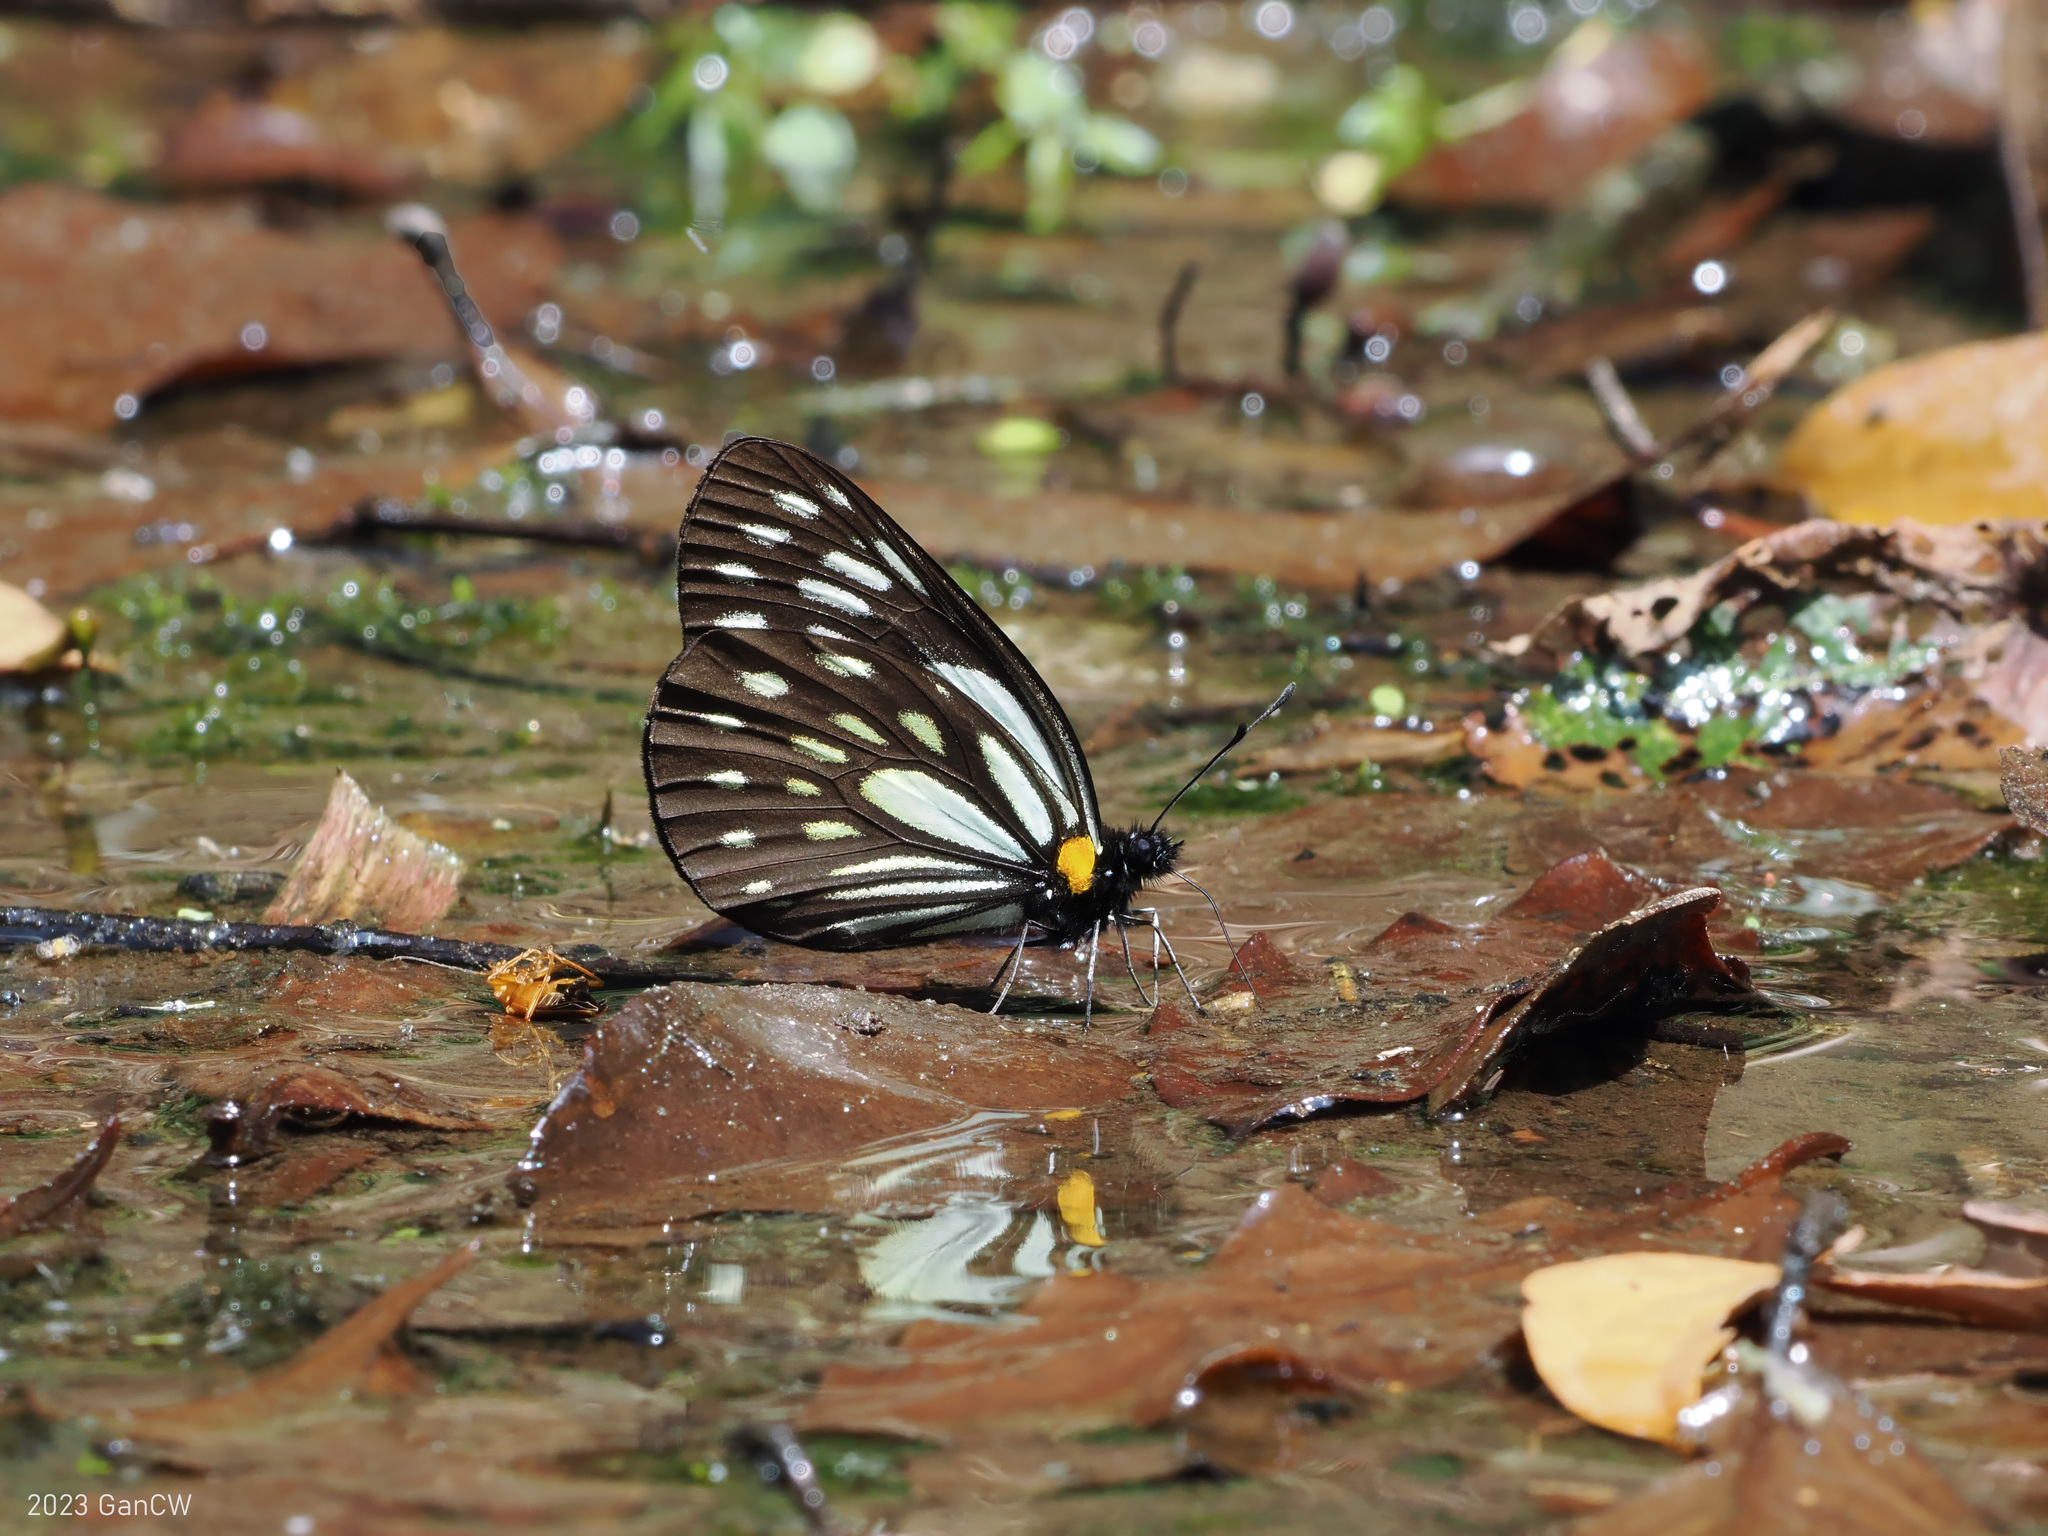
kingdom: Animalia
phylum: Arthropoda
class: Insecta
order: Lepidoptera
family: Pieridae
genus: Aporia
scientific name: Aporia agathon
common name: Great blackvein
